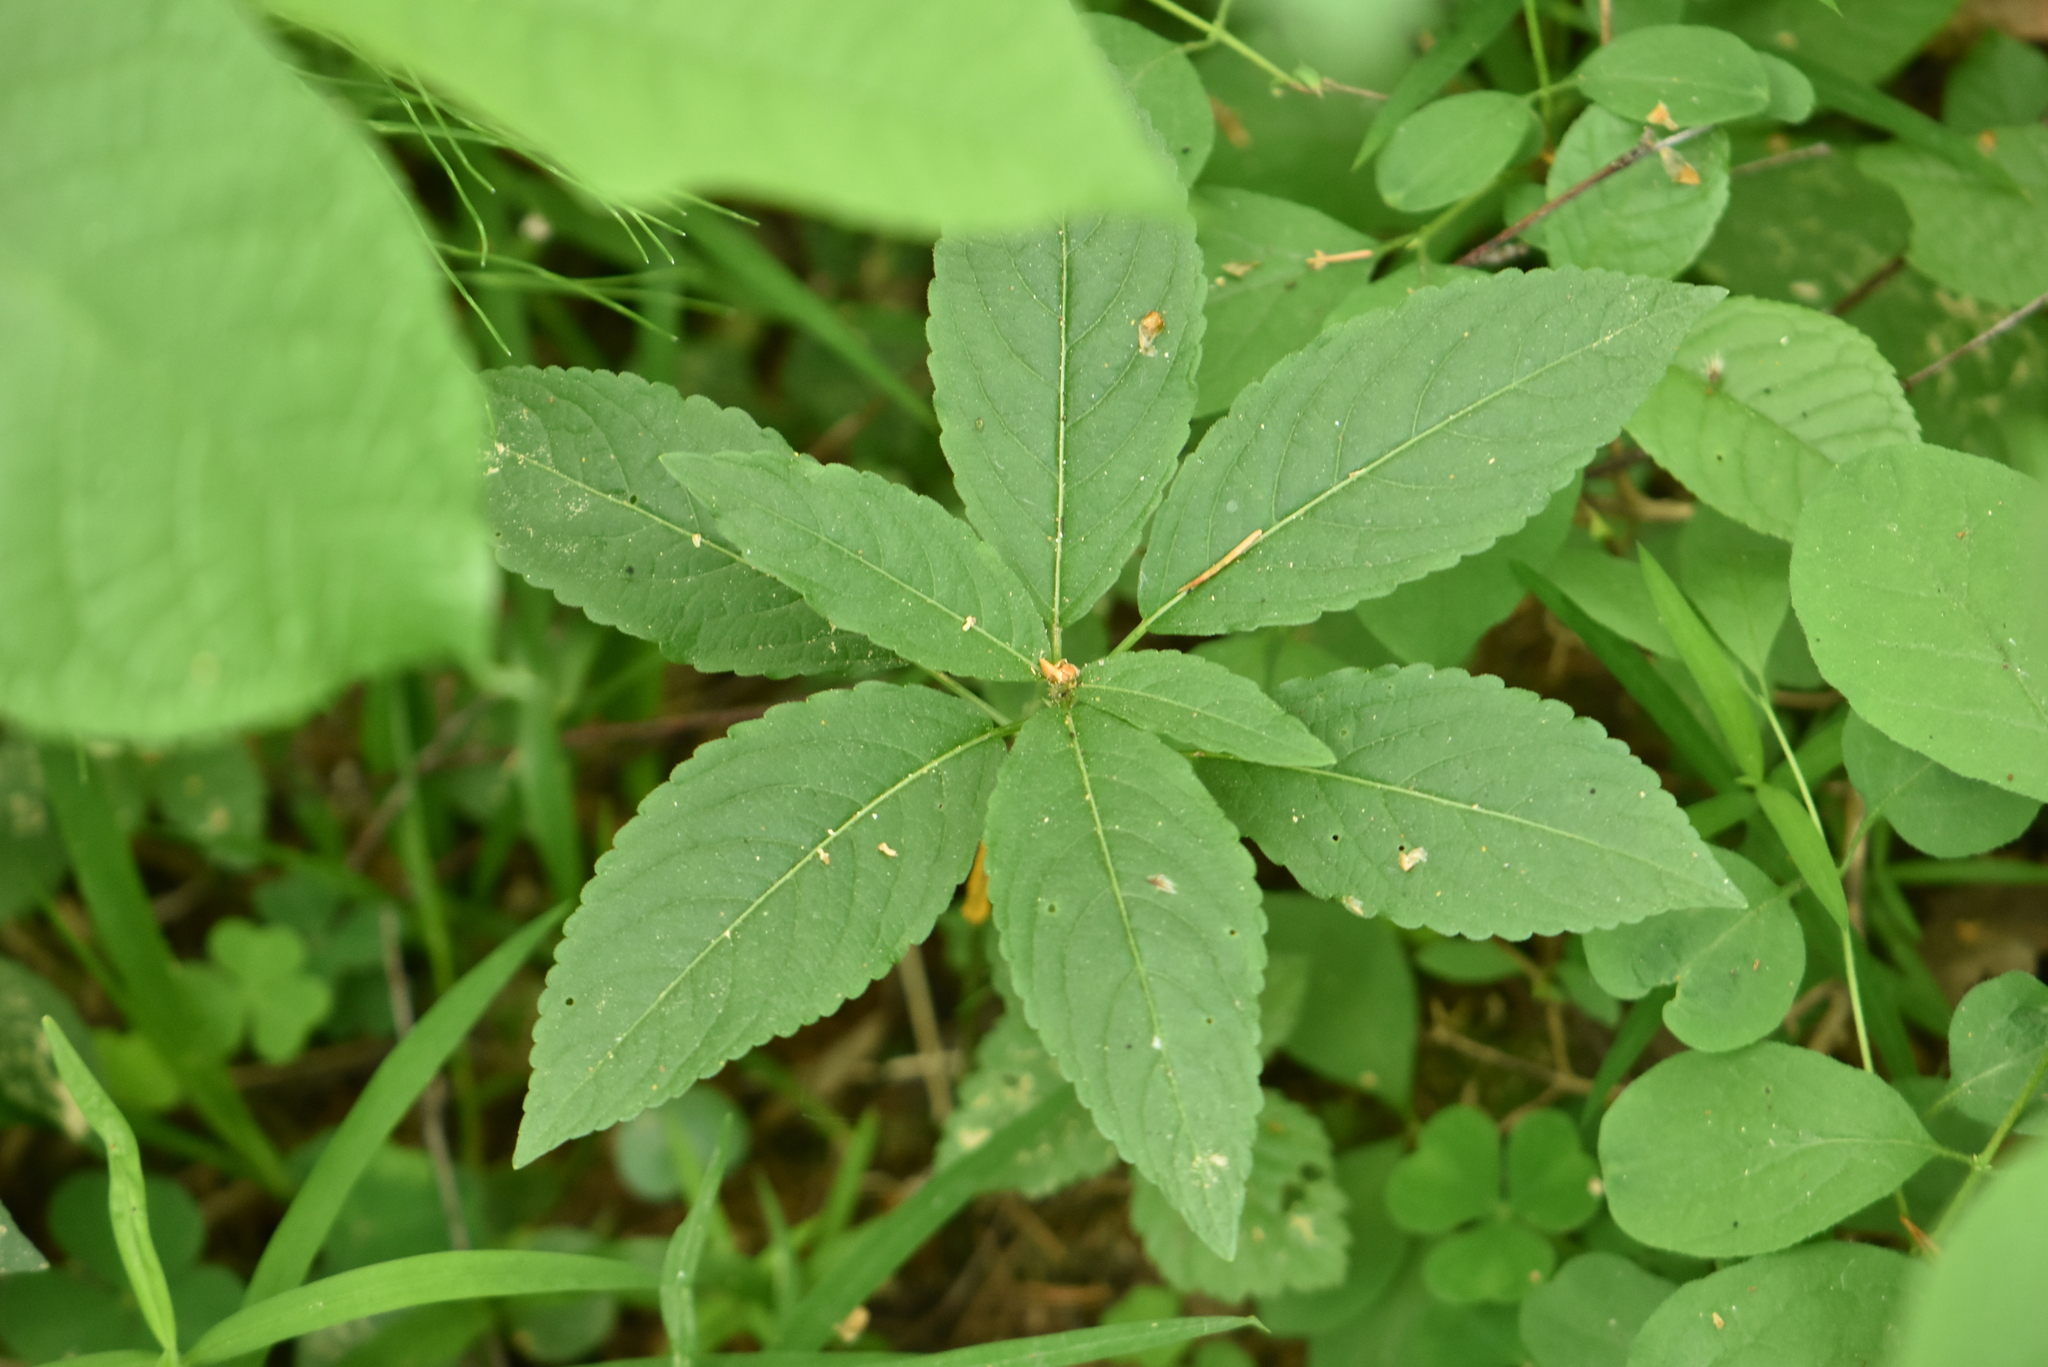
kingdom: Plantae
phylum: Tracheophyta
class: Magnoliopsida
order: Malpighiales
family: Euphorbiaceae
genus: Mercurialis
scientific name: Mercurialis perennis
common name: Dog mercury
